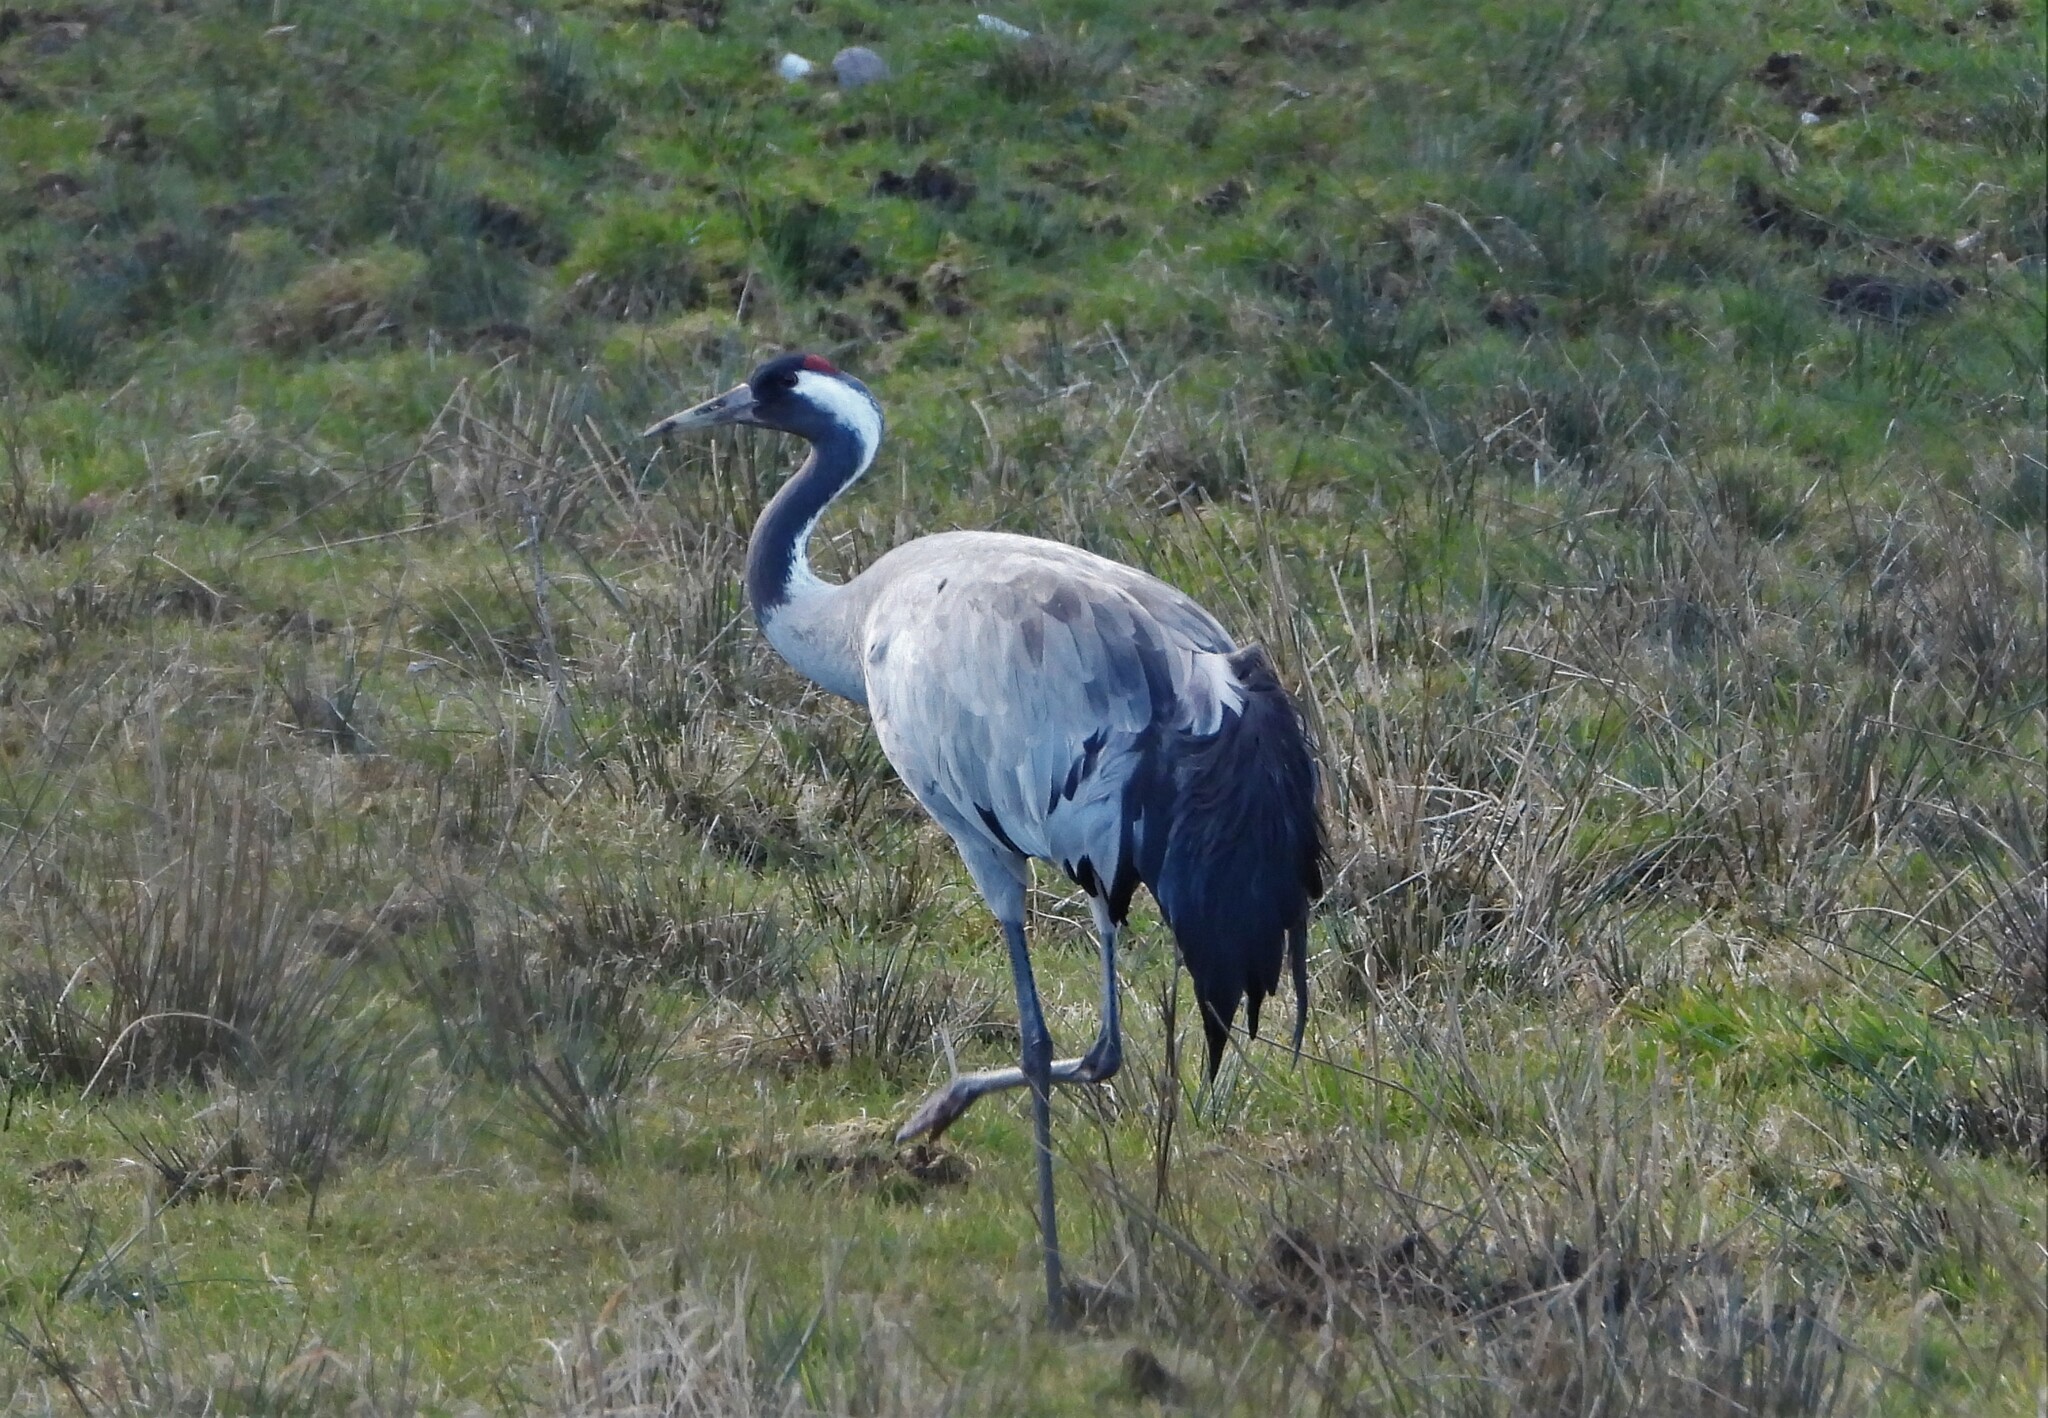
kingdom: Animalia
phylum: Chordata
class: Aves
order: Gruiformes
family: Gruidae
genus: Grus
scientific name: Grus grus
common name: Common crane
